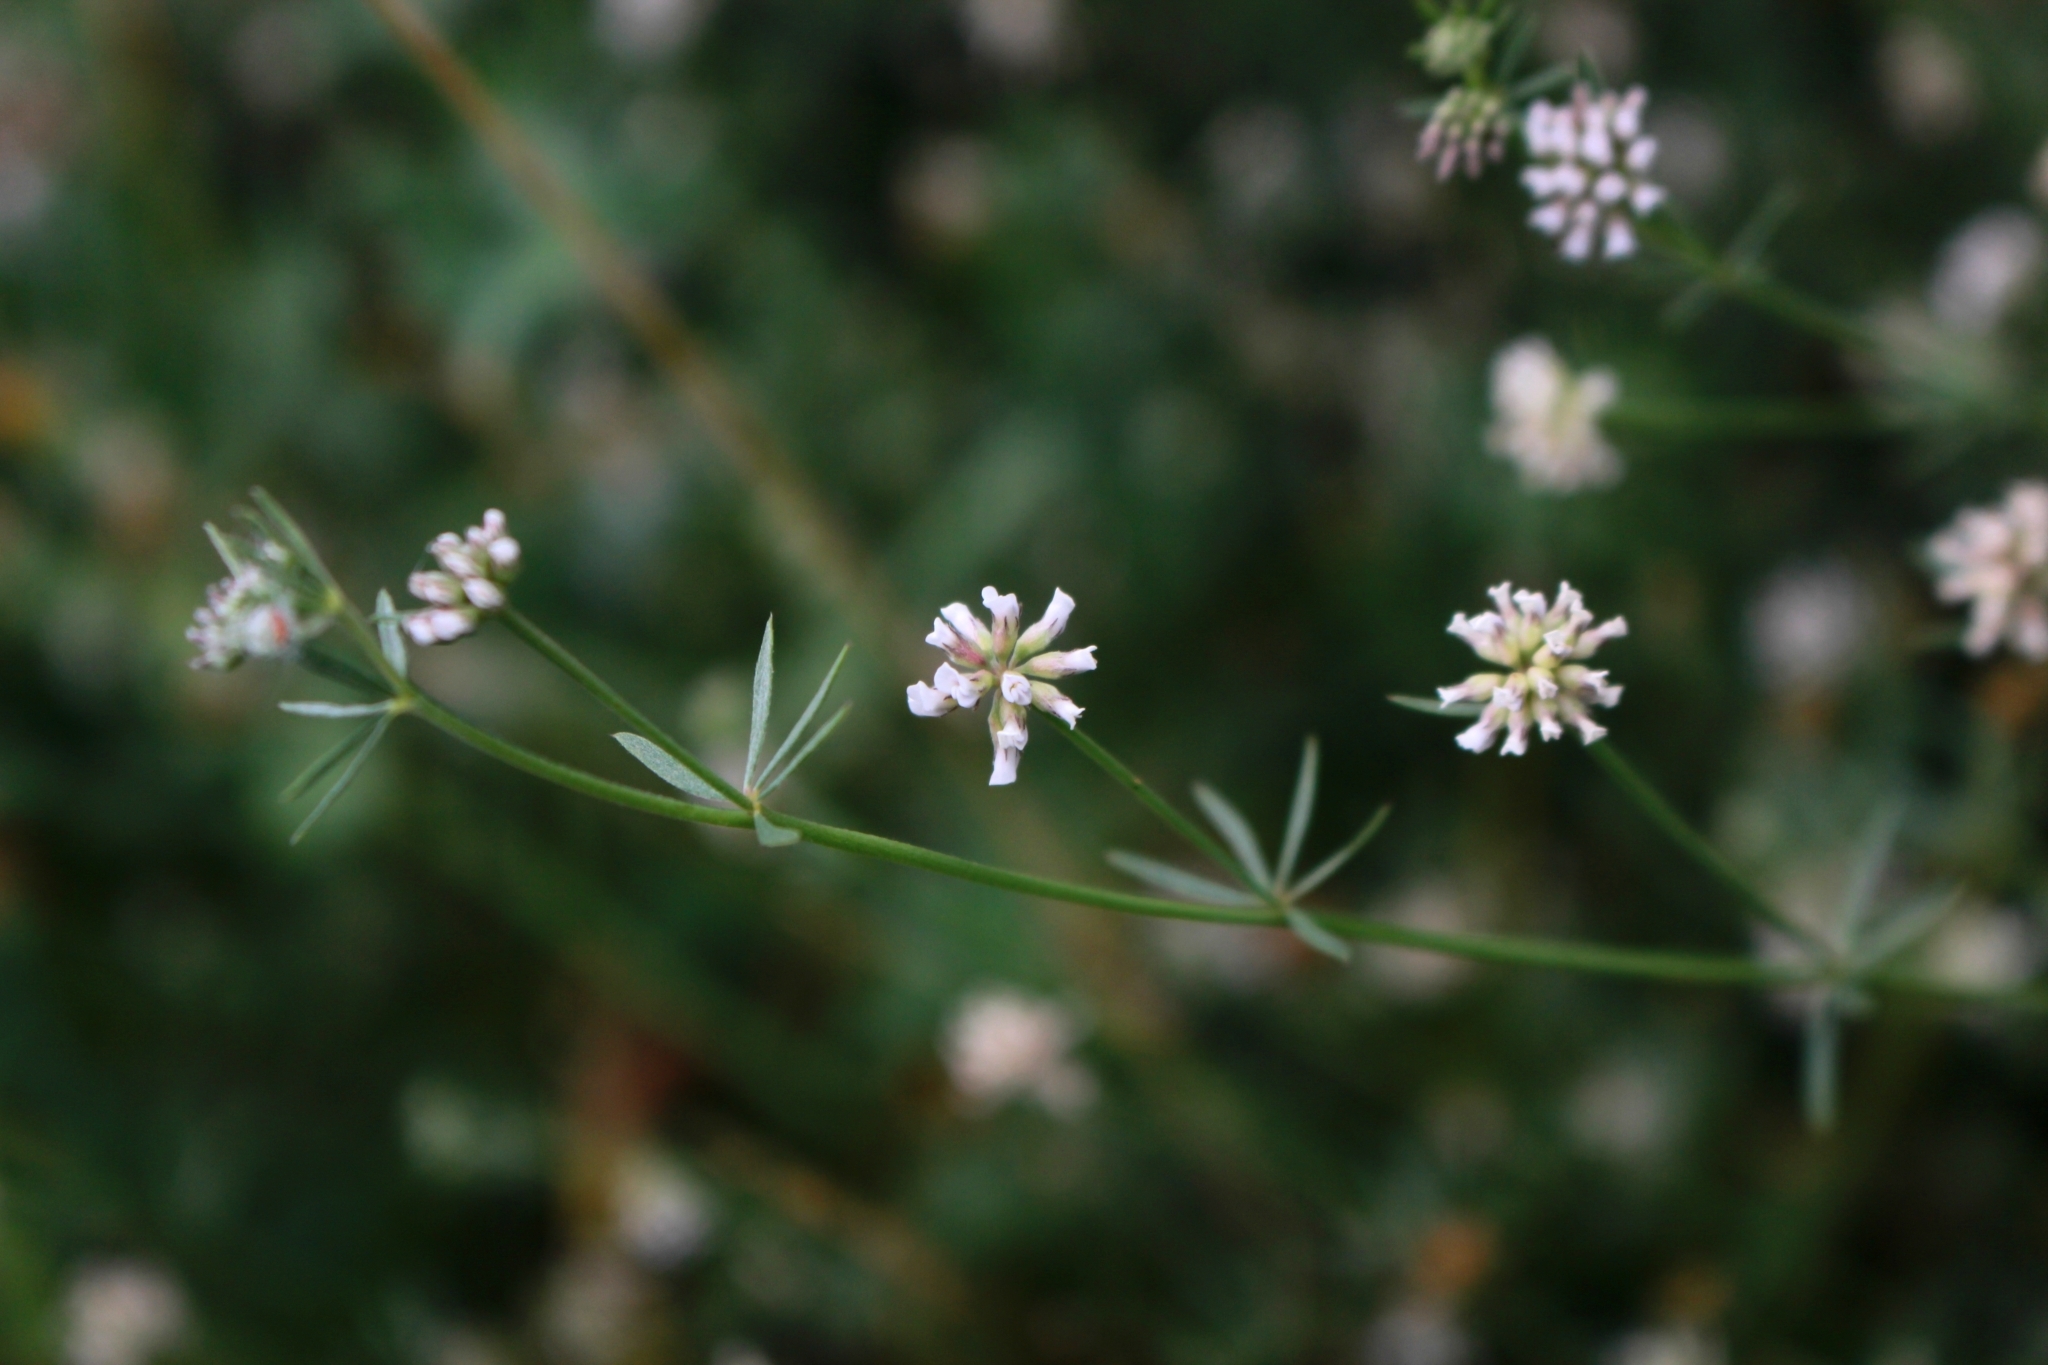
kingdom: Plantae
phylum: Tracheophyta
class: Magnoliopsida
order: Fabales
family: Fabaceae
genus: Lotus
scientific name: Lotus dorycnium
